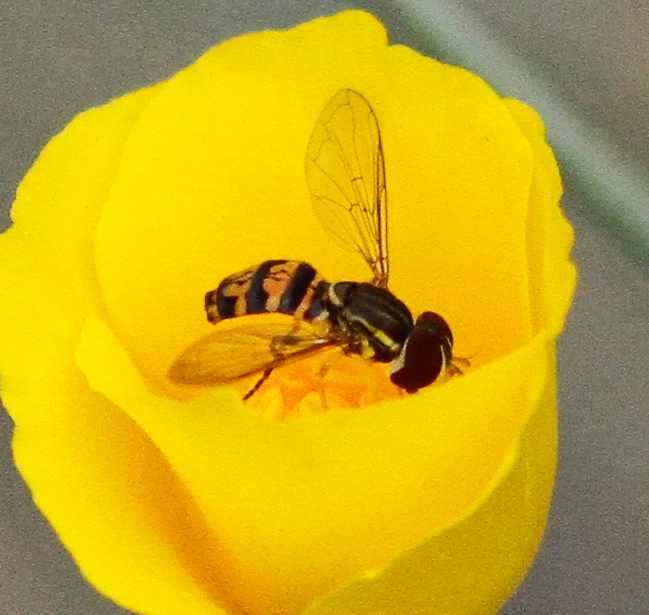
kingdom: Animalia
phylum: Arthropoda
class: Insecta
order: Diptera
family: Syrphidae
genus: Toxomerus
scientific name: Toxomerus occidentalis
